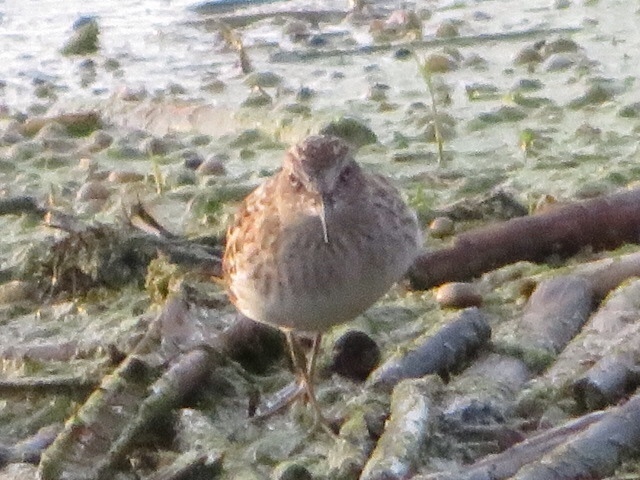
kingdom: Animalia
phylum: Chordata
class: Aves
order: Charadriiformes
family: Scolopacidae
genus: Calidris
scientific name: Calidris minutilla
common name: Least sandpiper
